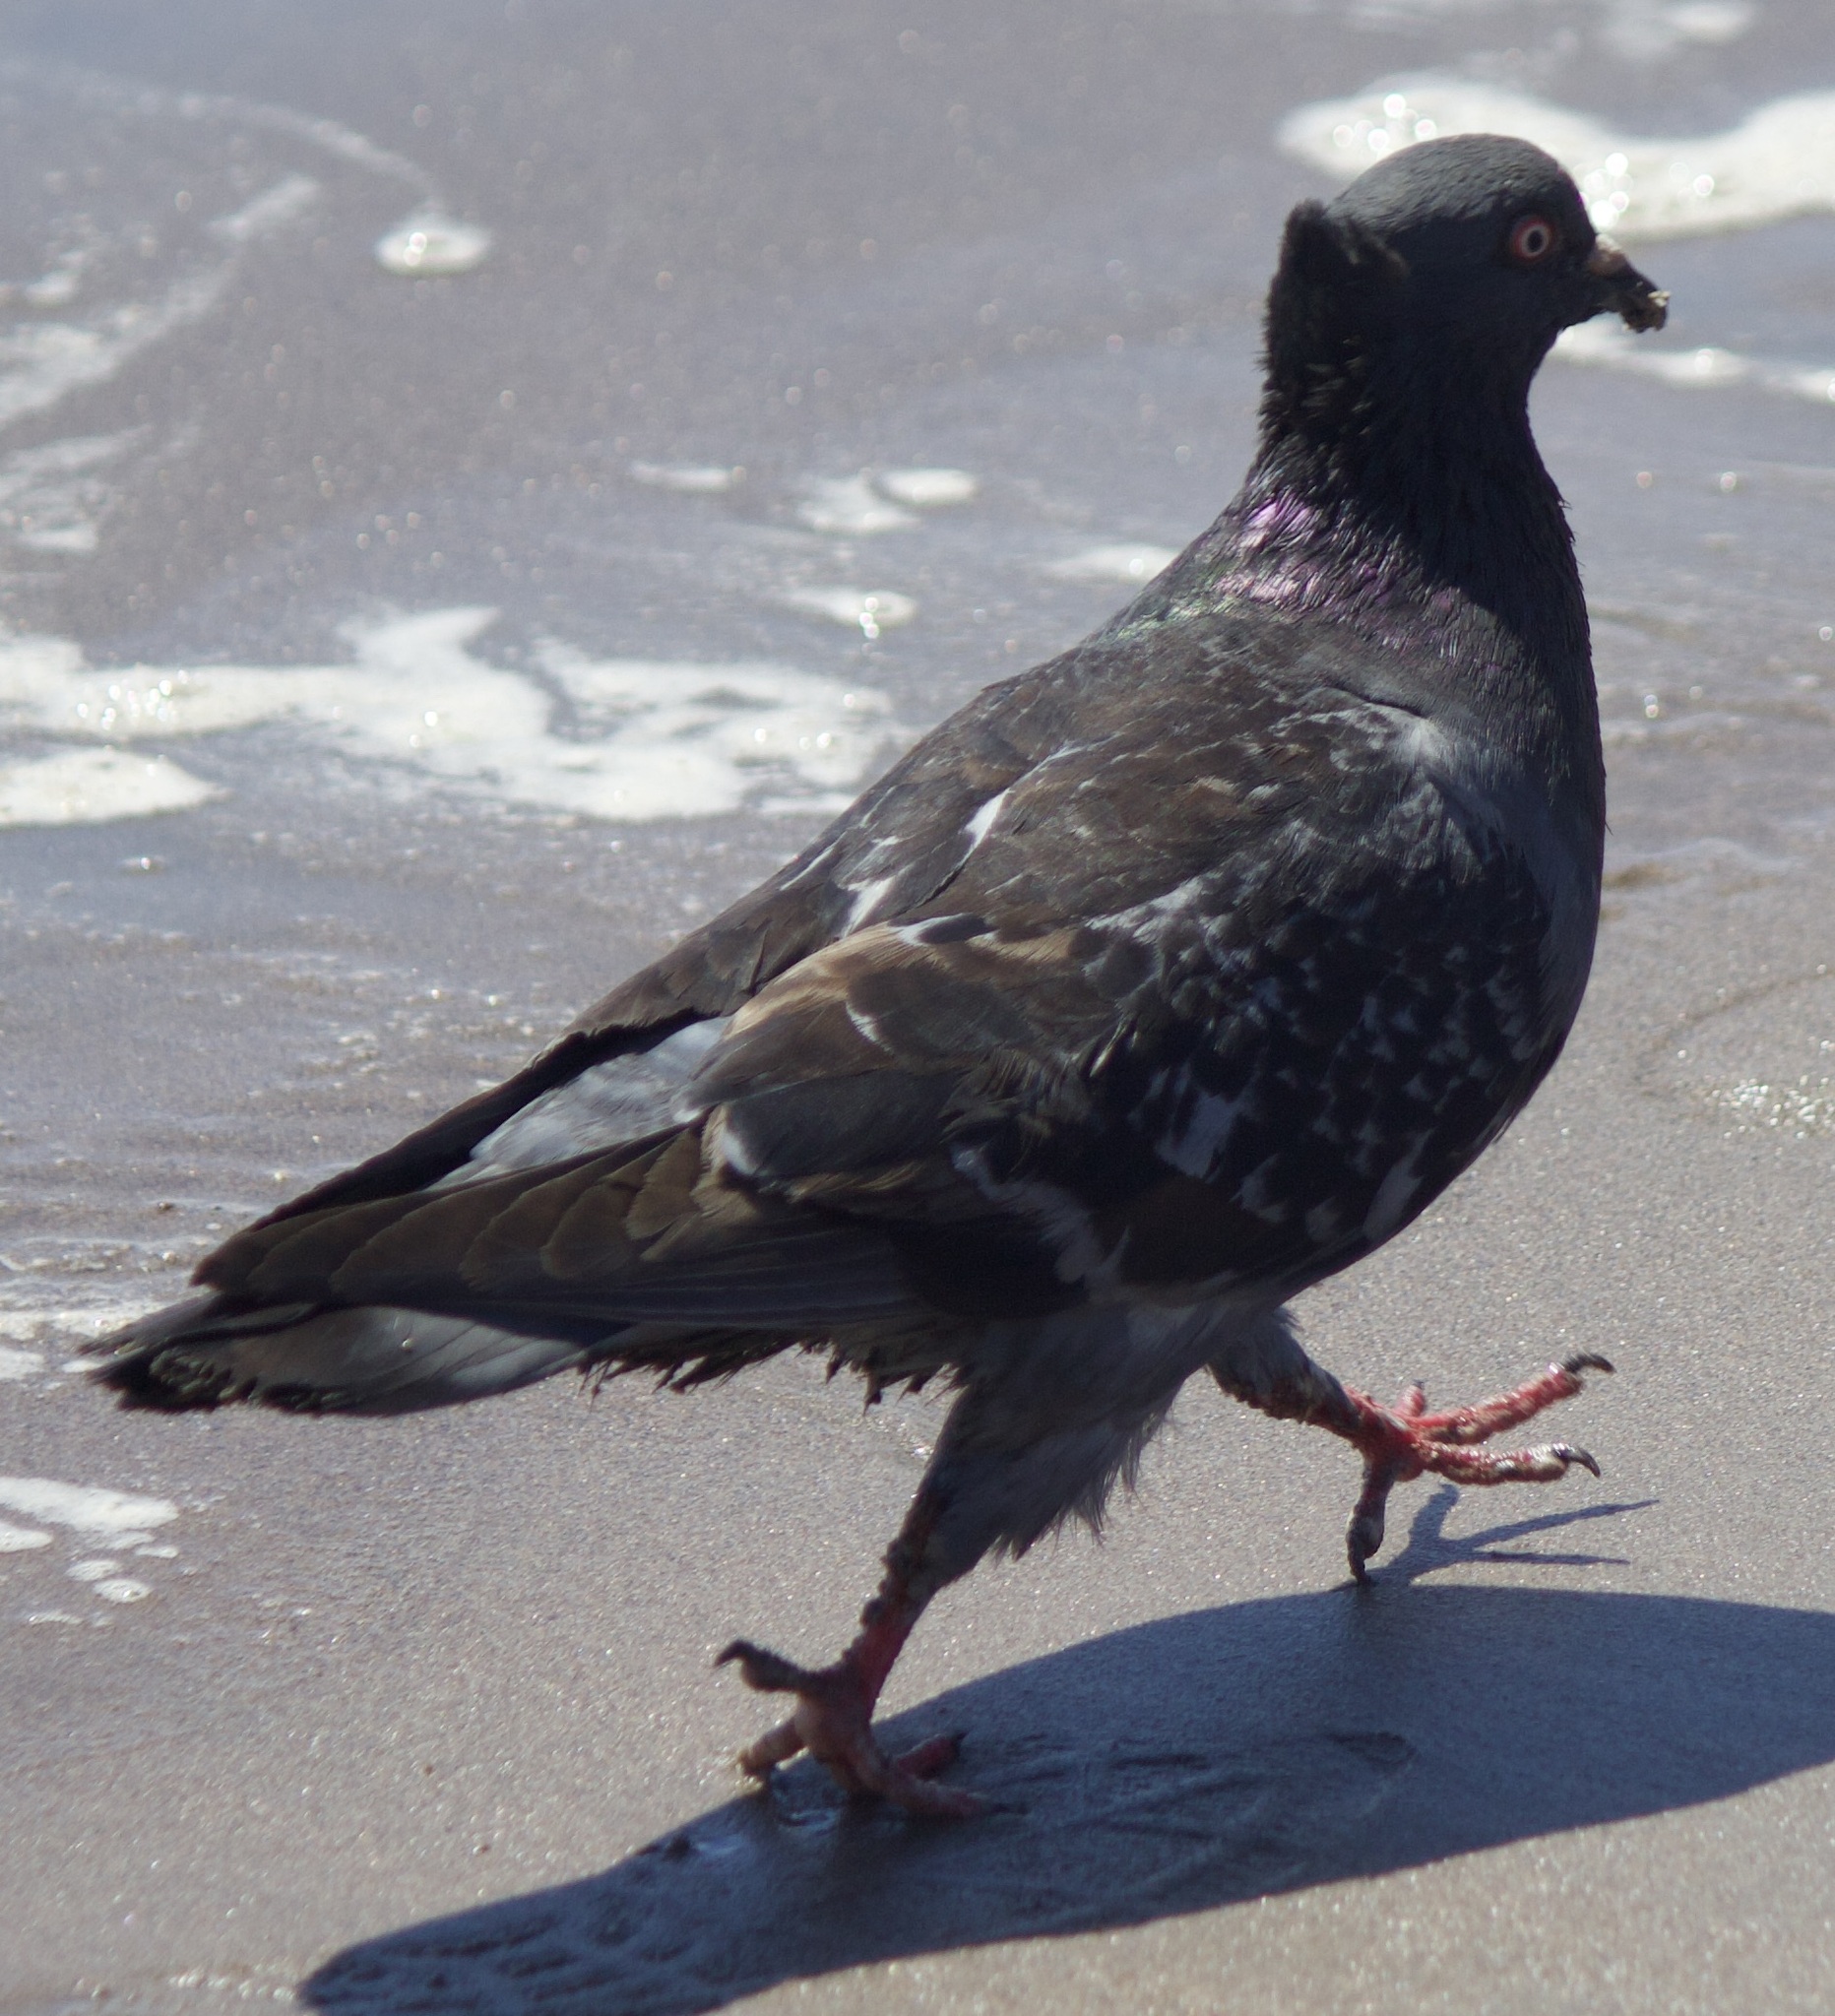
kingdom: Animalia
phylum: Chordata
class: Aves
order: Columbiformes
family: Columbidae
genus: Columba
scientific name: Columba livia
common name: Rock pigeon
